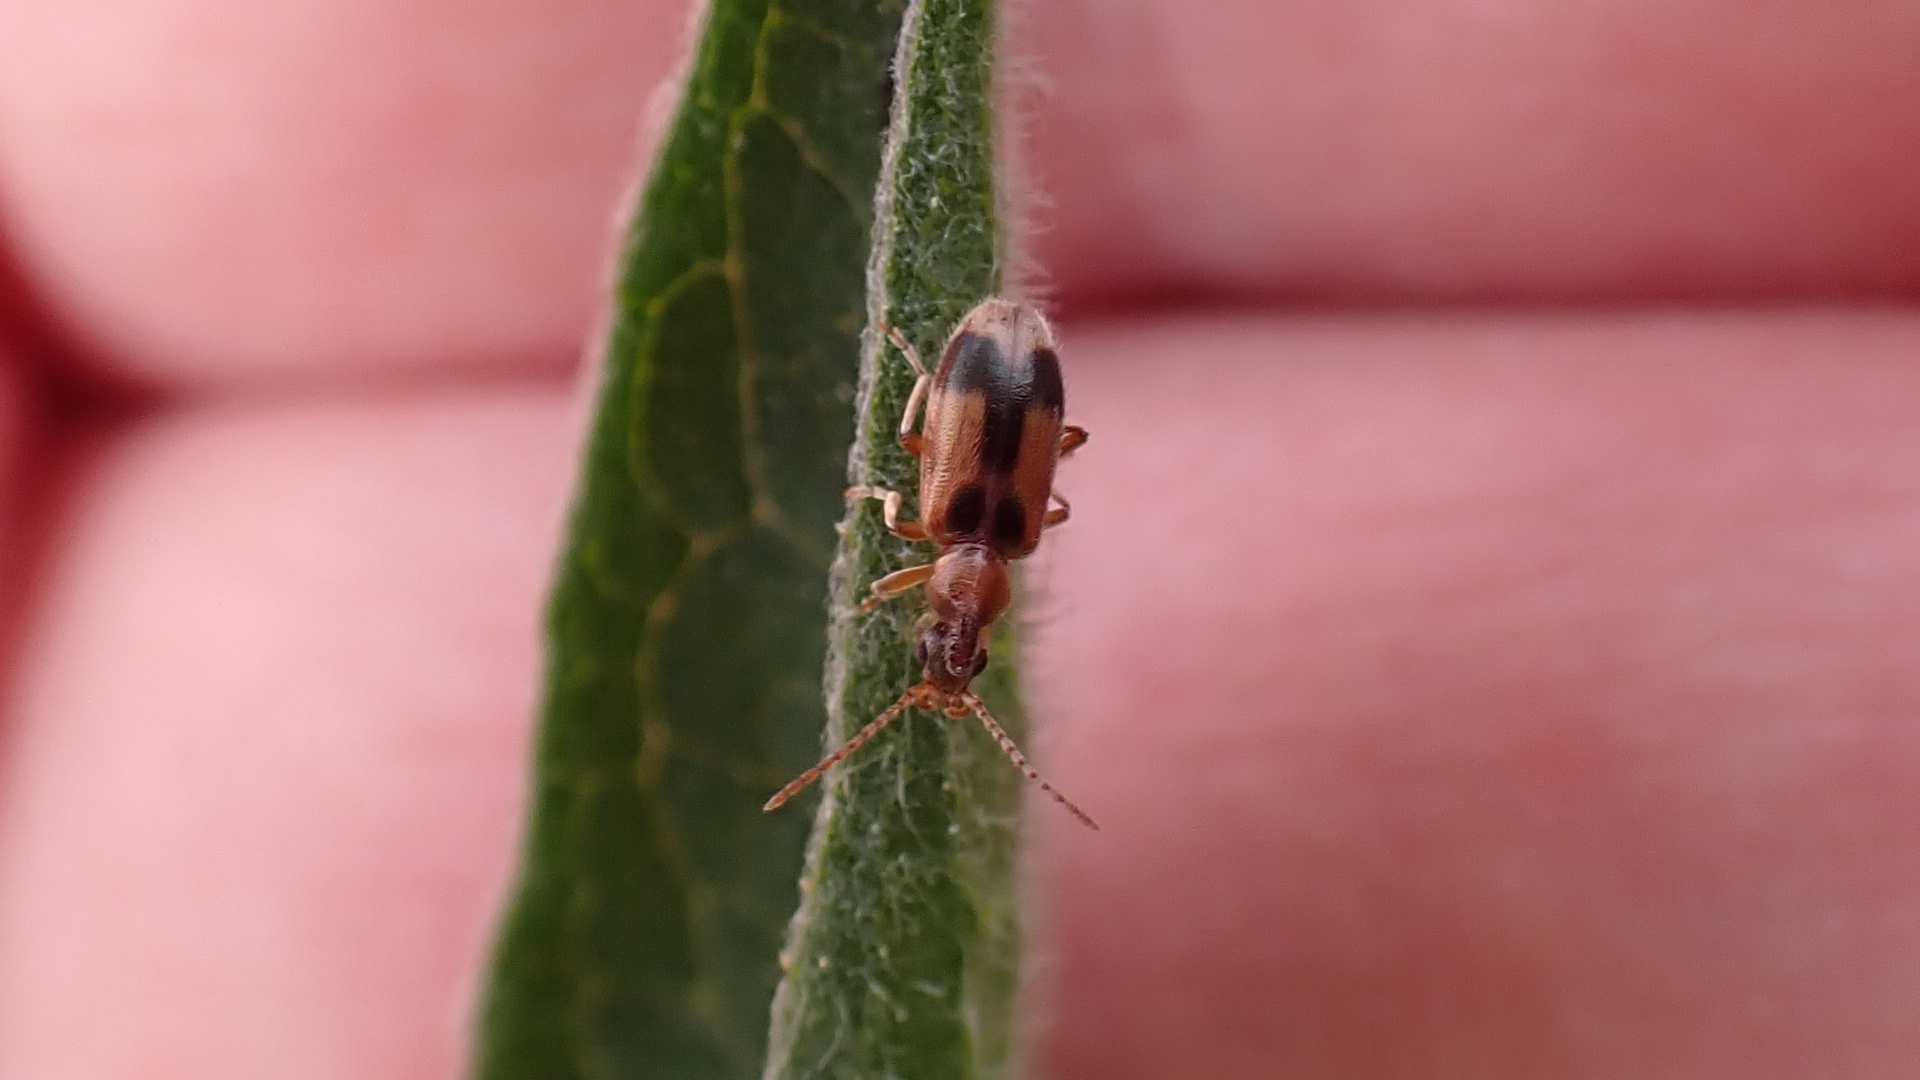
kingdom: Animalia
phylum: Arthropoda
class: Insecta
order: Coleoptera
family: Anthicidae
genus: Notoxus
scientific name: Notoxus monoceros
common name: Monoceros beetle
